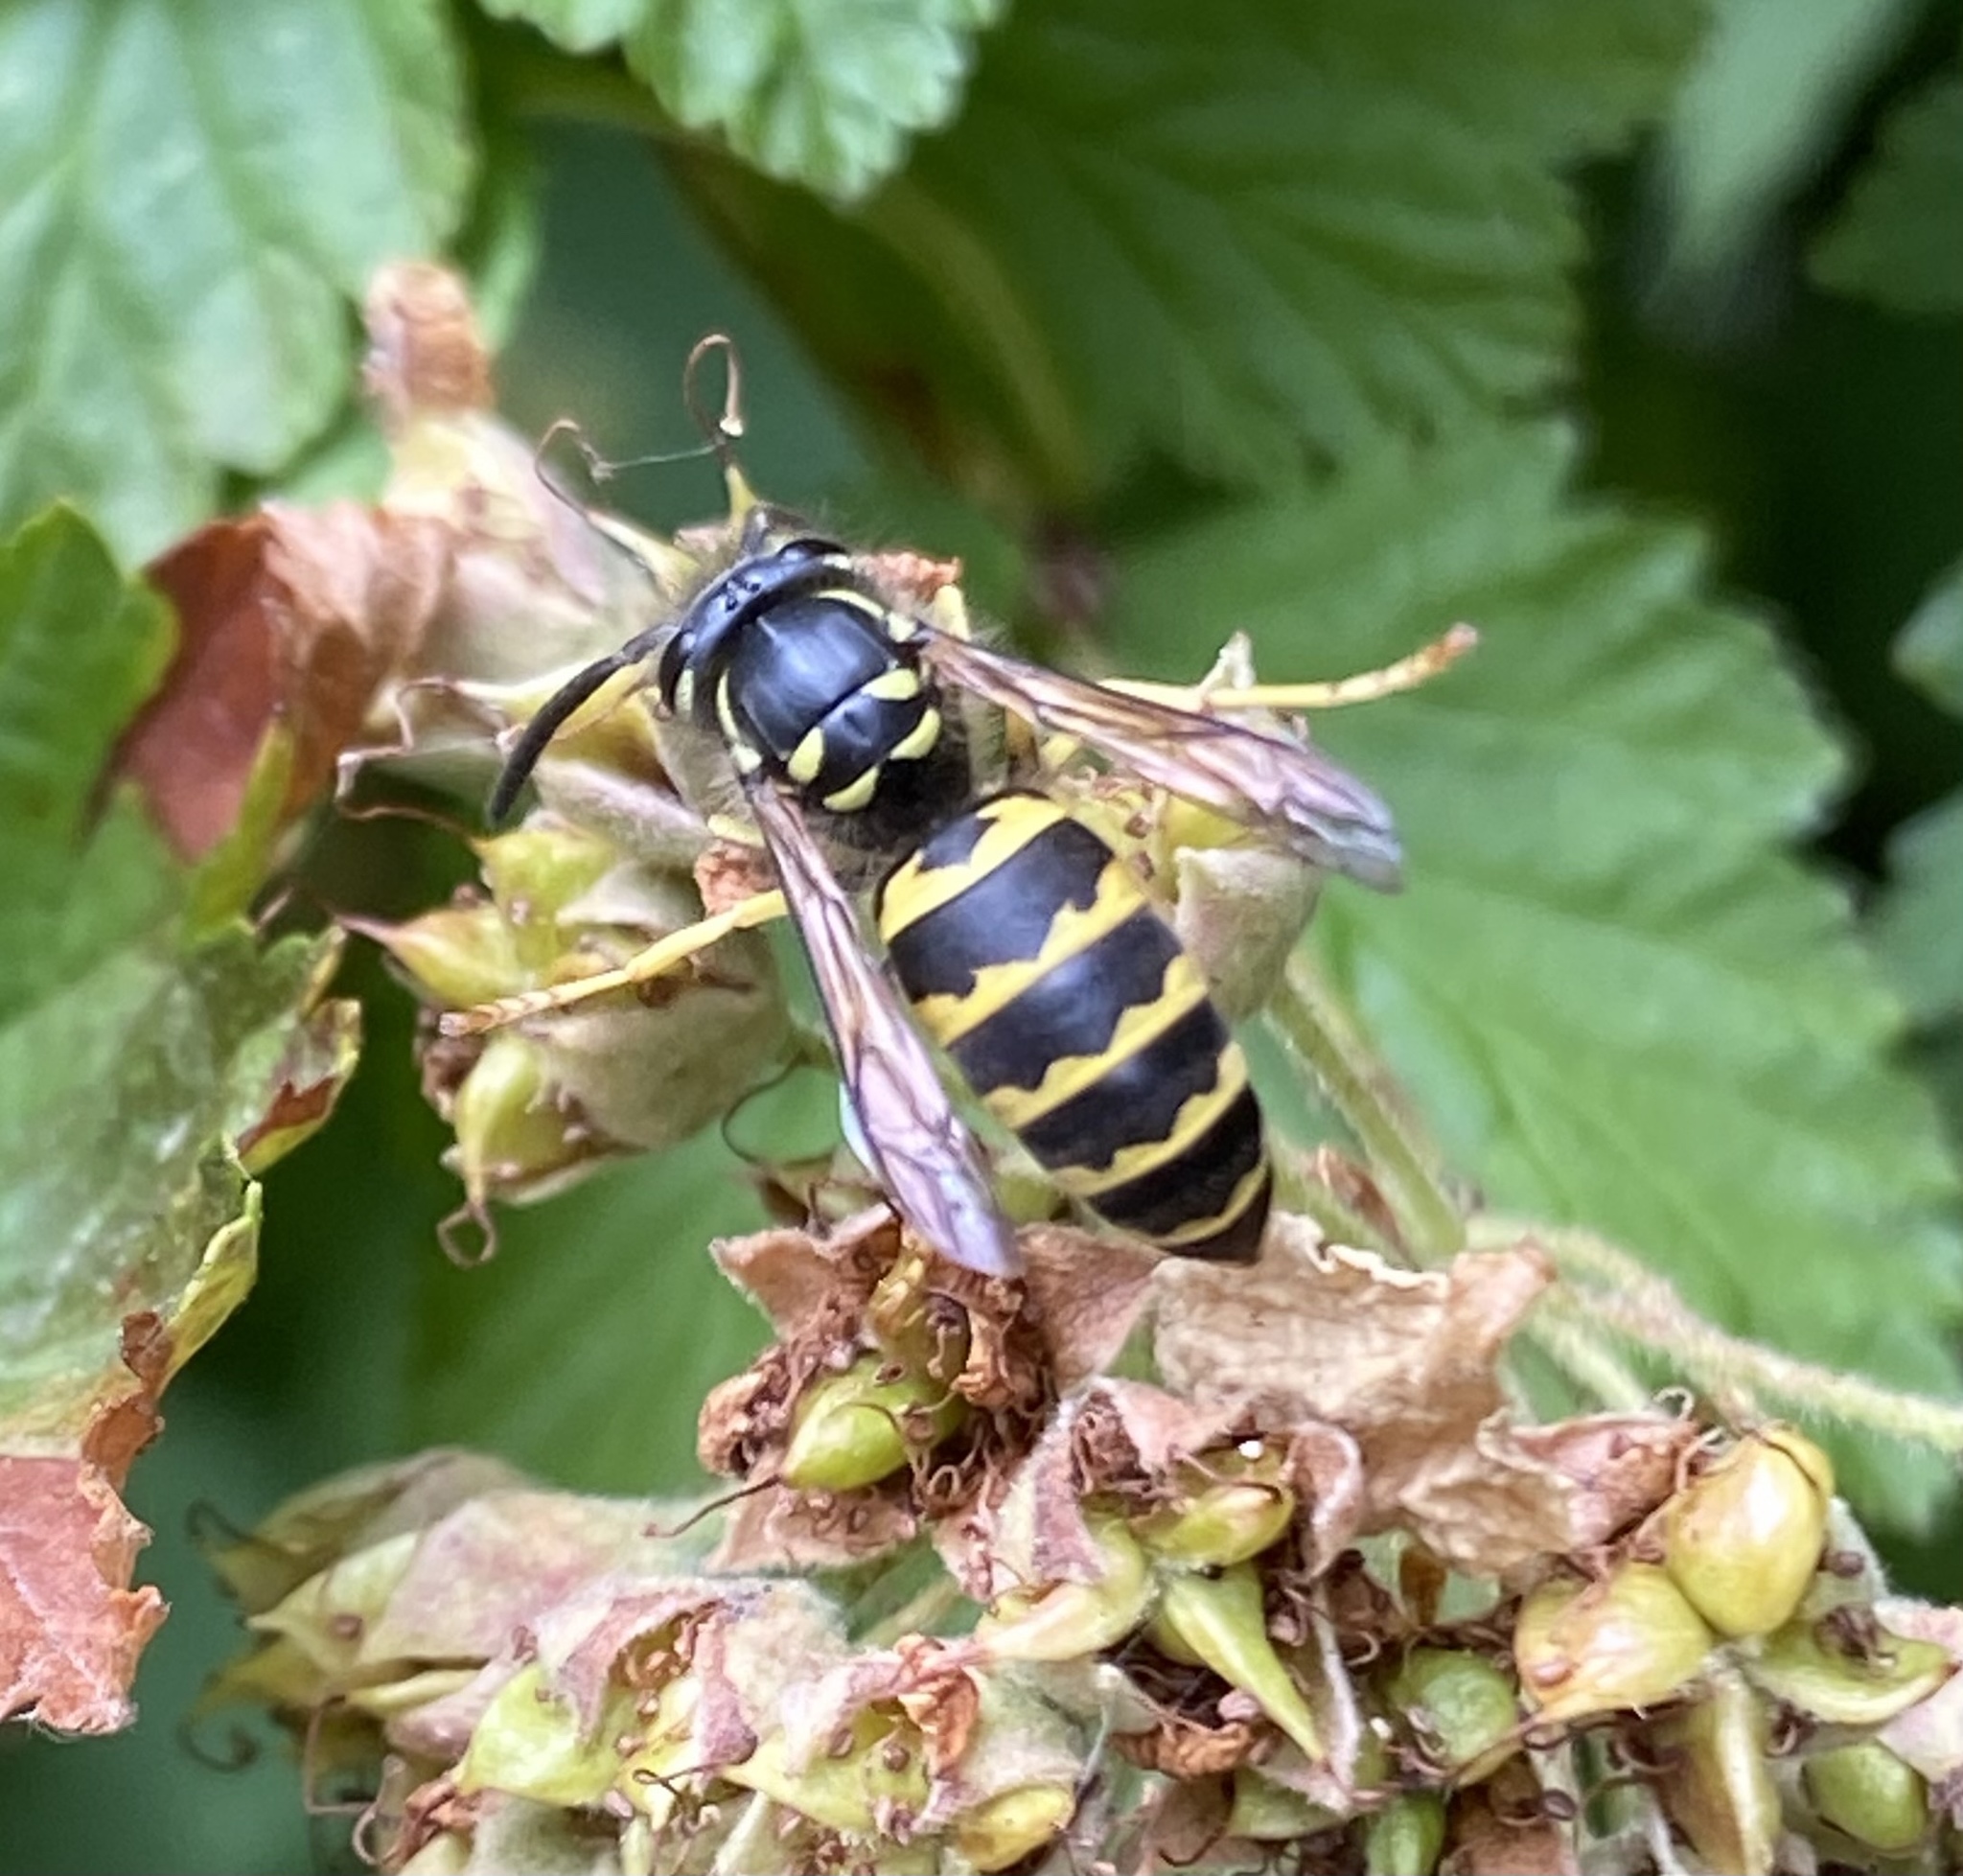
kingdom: Animalia
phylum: Arthropoda
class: Insecta
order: Hymenoptera
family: Vespidae
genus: Vespula
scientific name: Vespula alascensis
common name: Alaska yellowjacket
